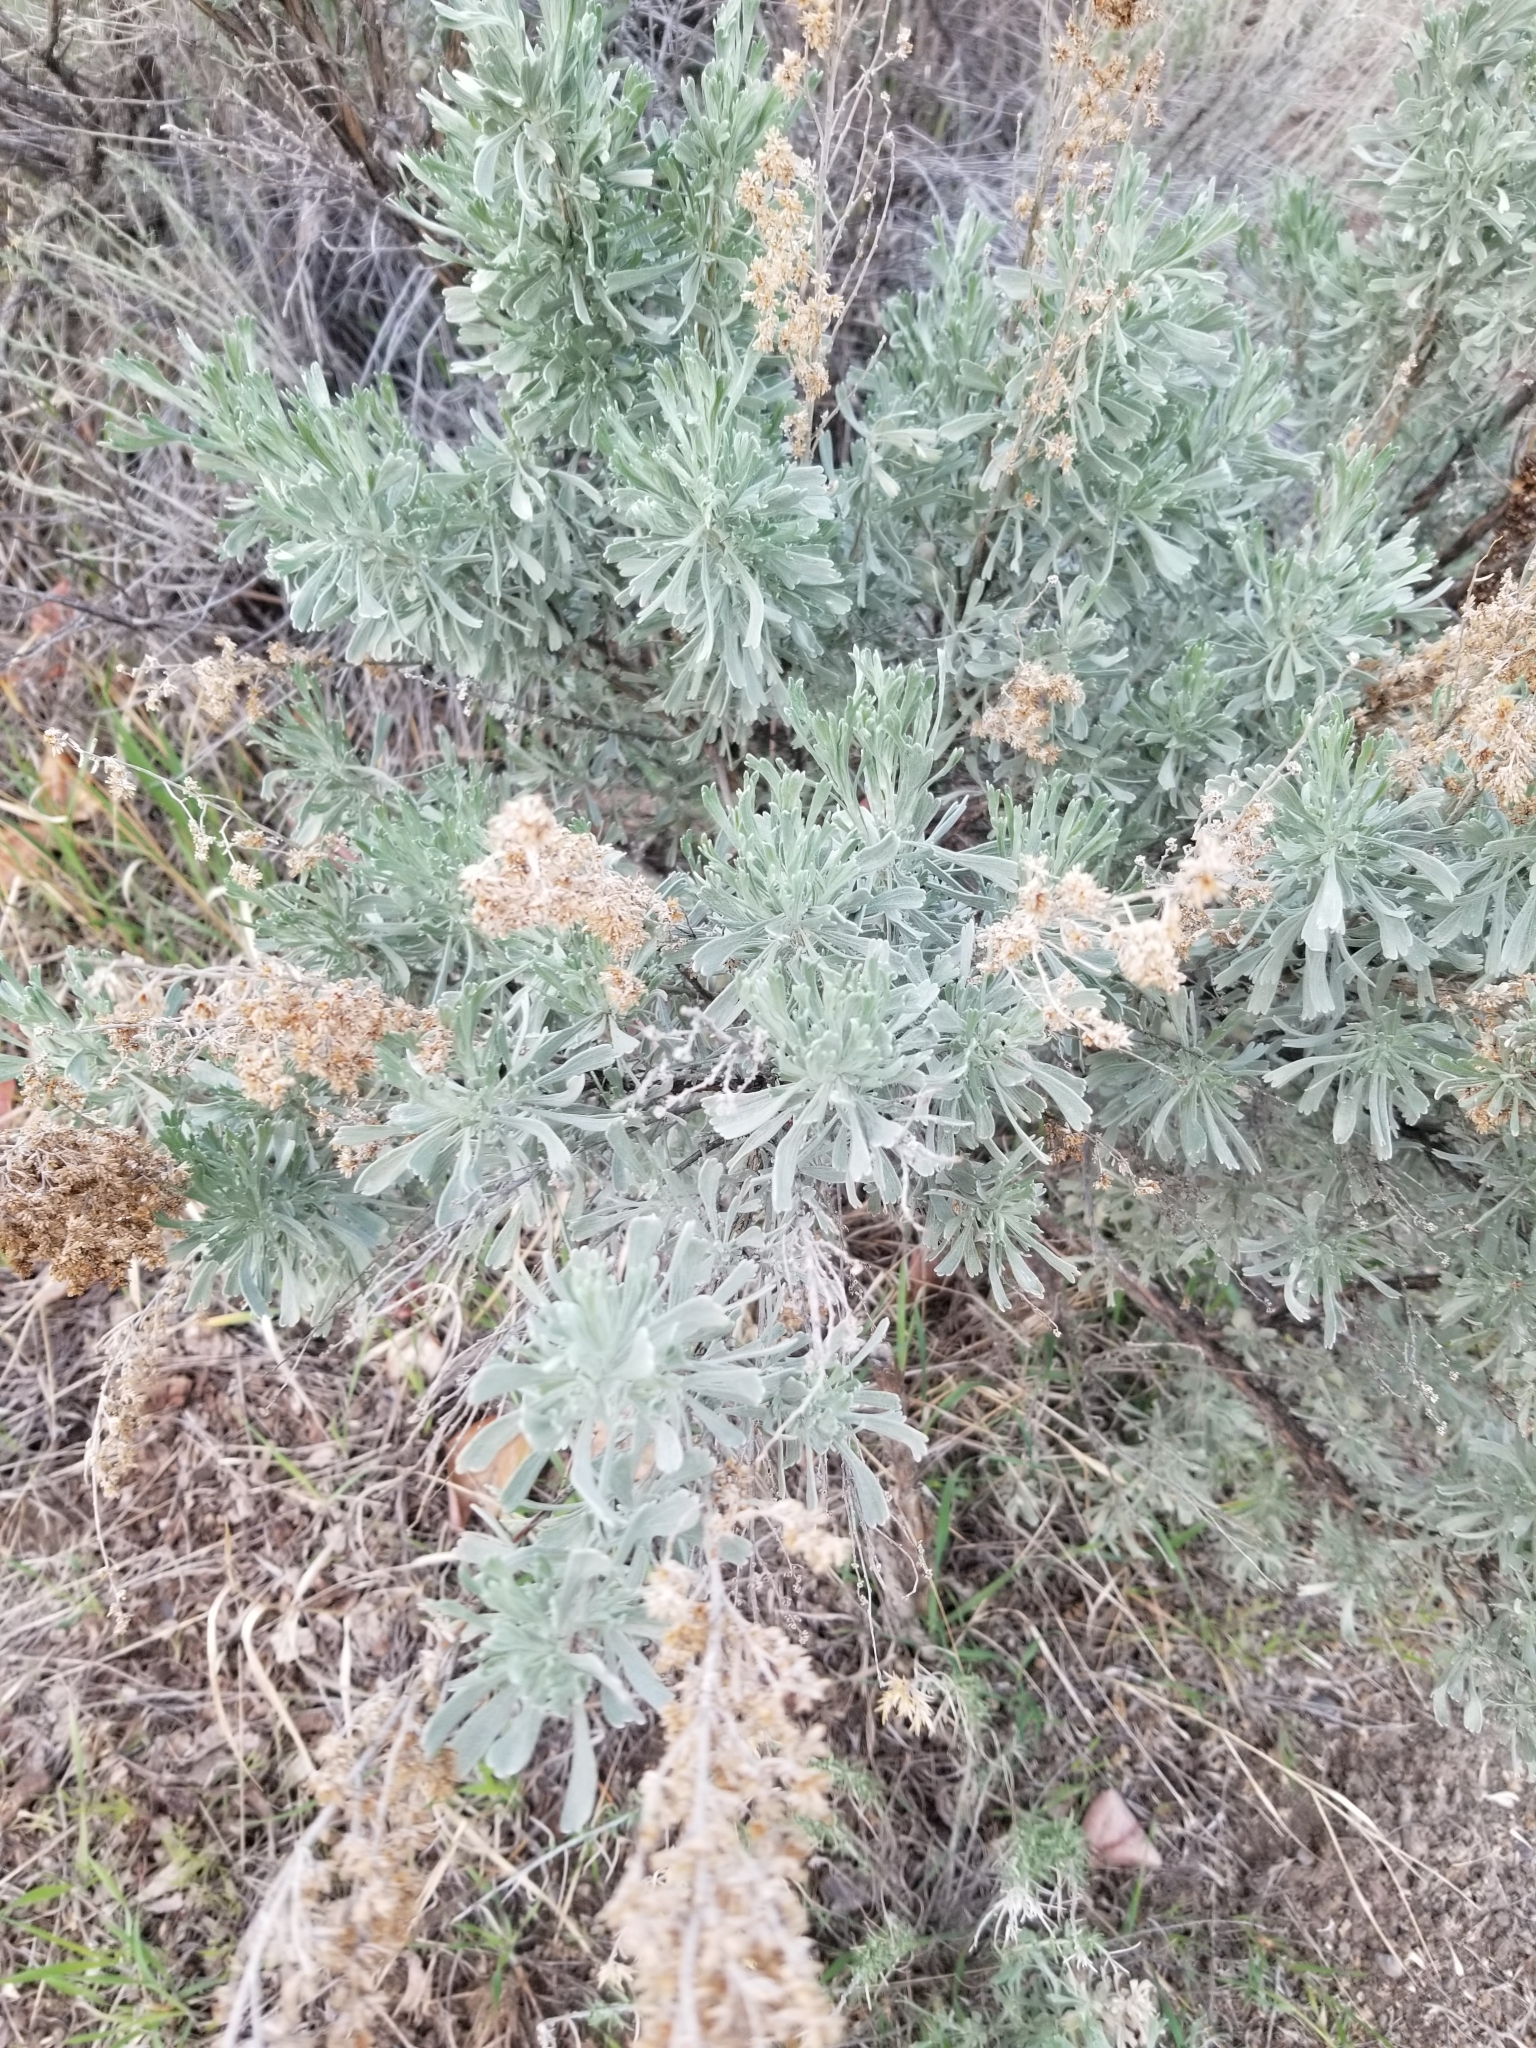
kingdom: Plantae
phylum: Tracheophyta
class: Magnoliopsida
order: Asterales
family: Asteraceae
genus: Artemisia
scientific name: Artemisia tridentata
